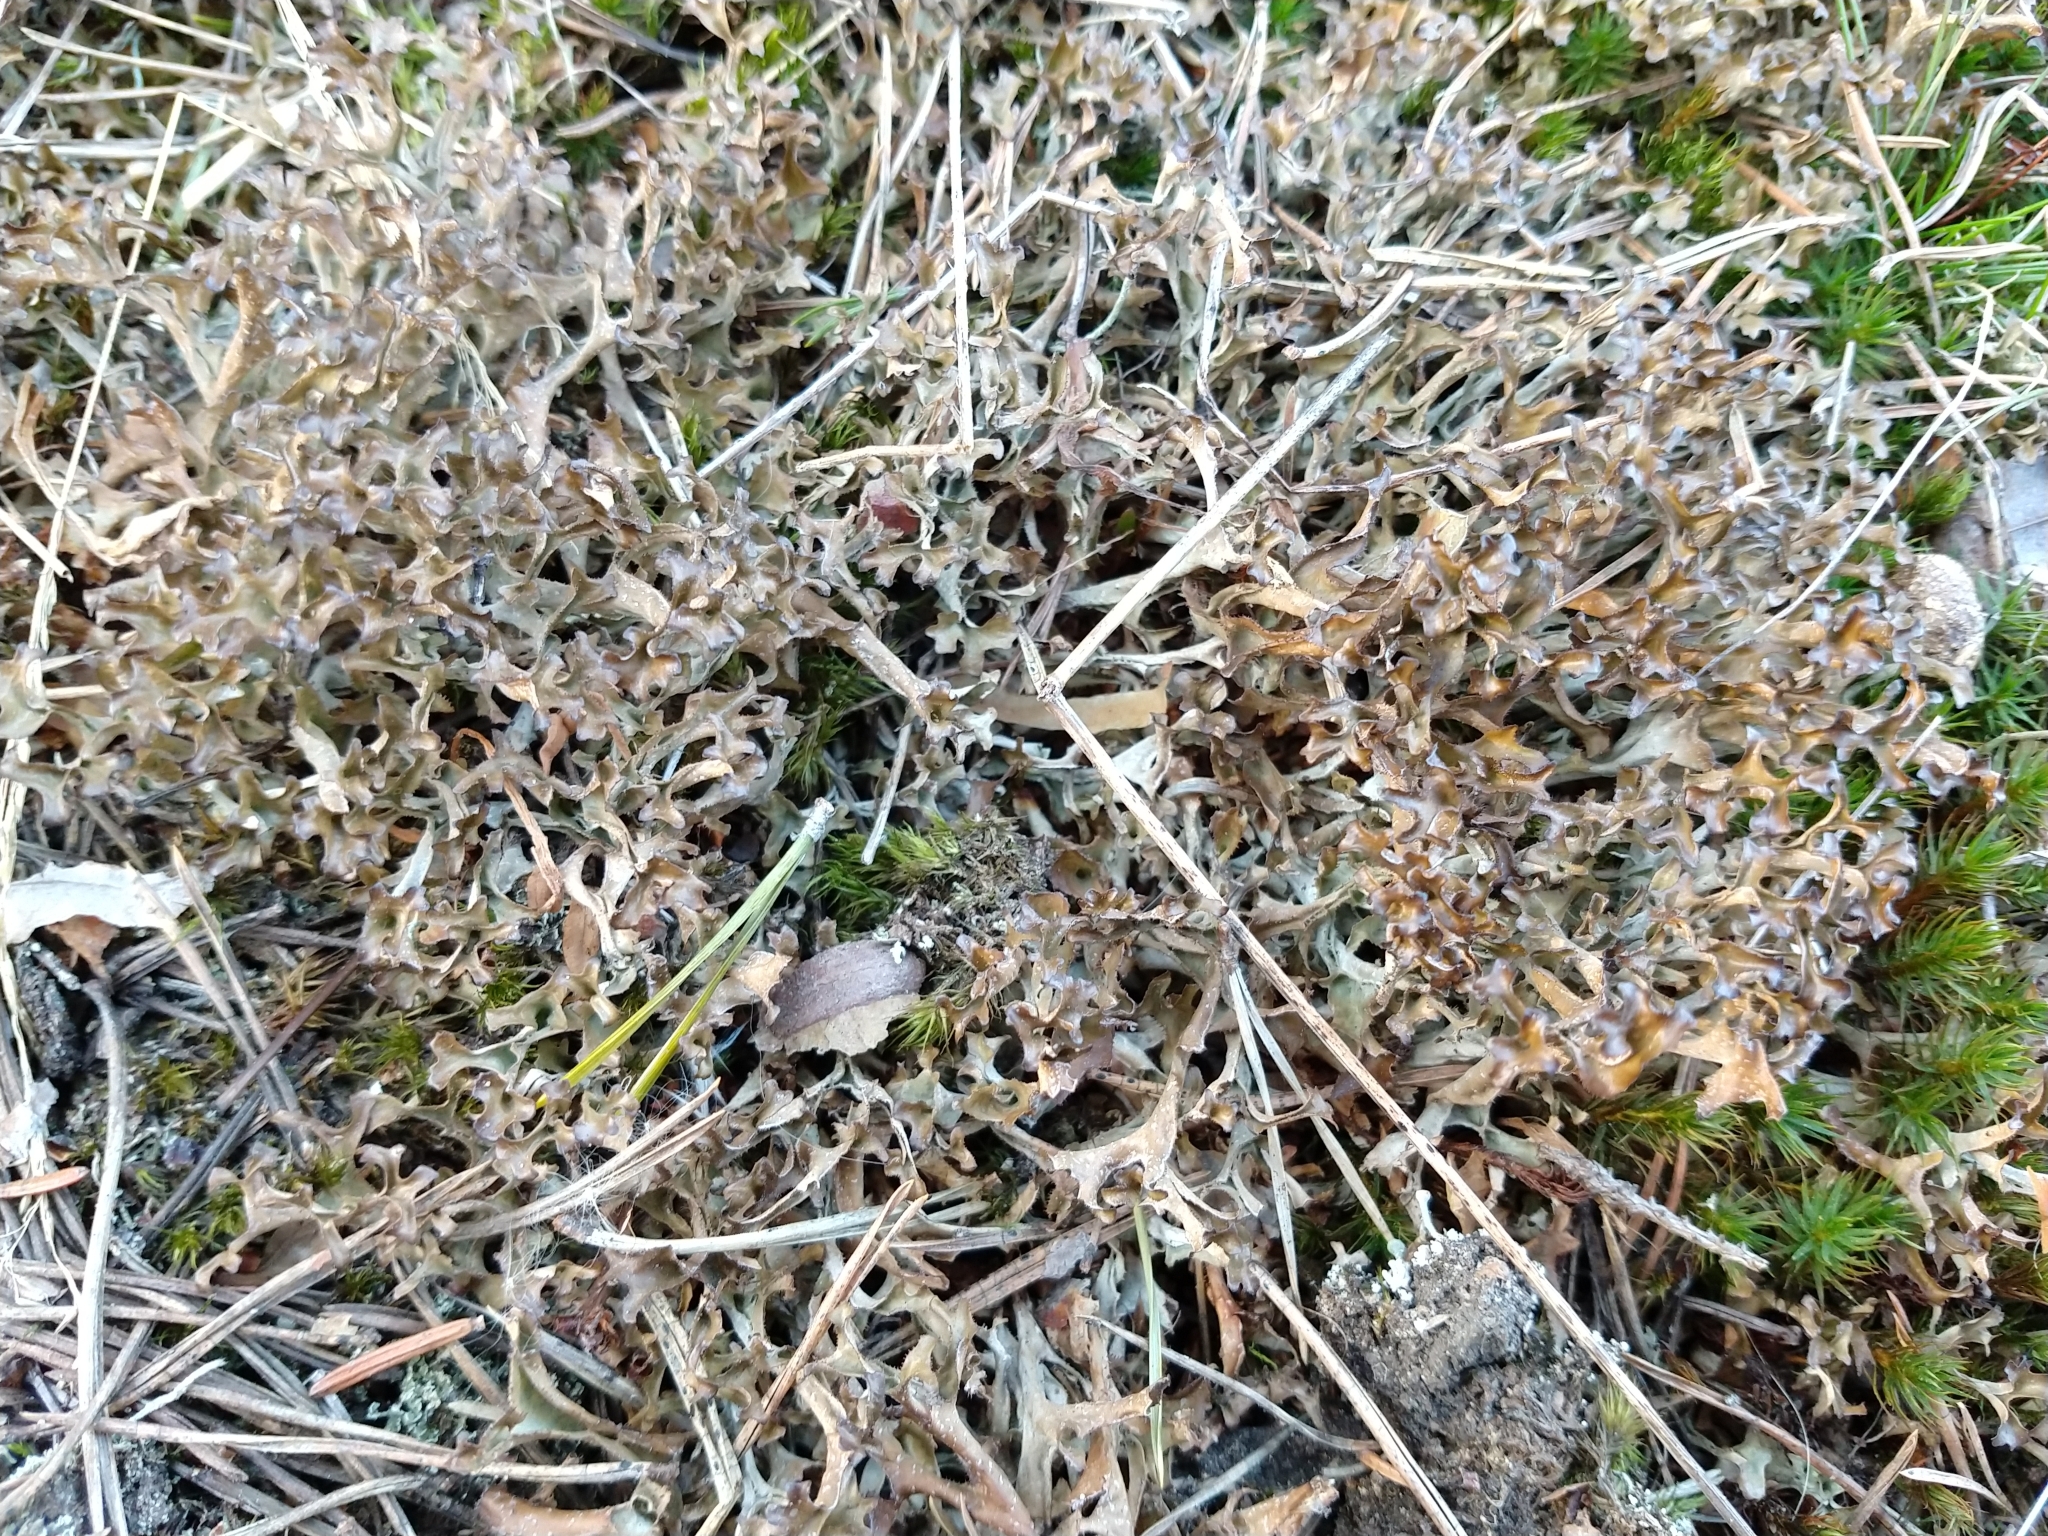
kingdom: Fungi
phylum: Ascomycota
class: Lecanoromycetes
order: Lecanorales
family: Parmeliaceae
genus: Cetraria
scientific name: Cetraria islandica
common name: Iceland lichen
